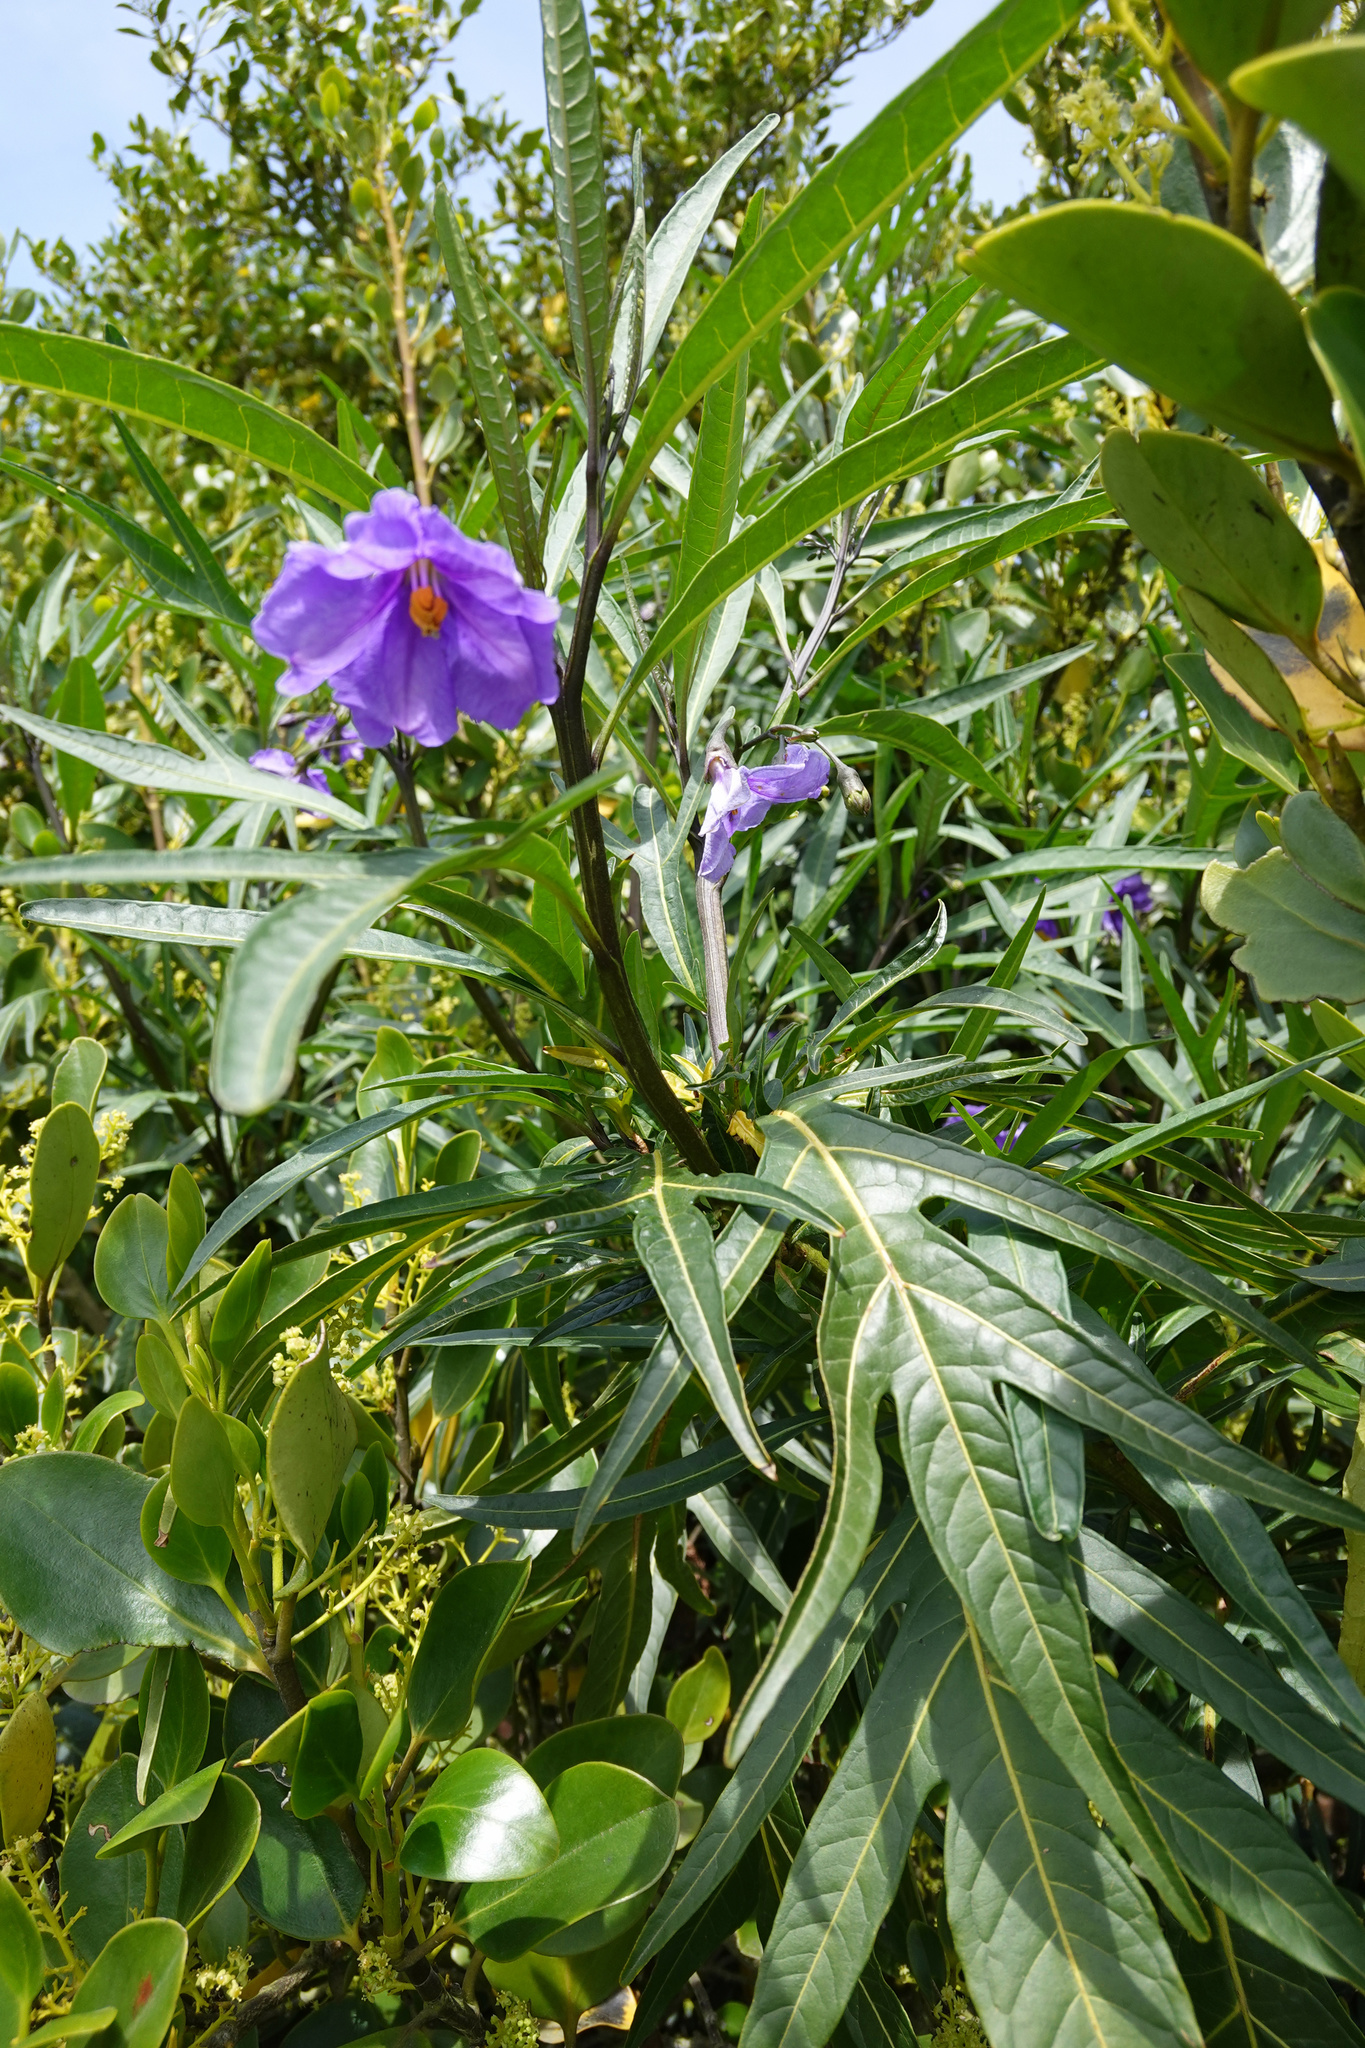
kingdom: Plantae
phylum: Tracheophyta
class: Magnoliopsida
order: Solanales
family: Solanaceae
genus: Solanum
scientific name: Solanum laciniatum
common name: Kangaroo-apple
